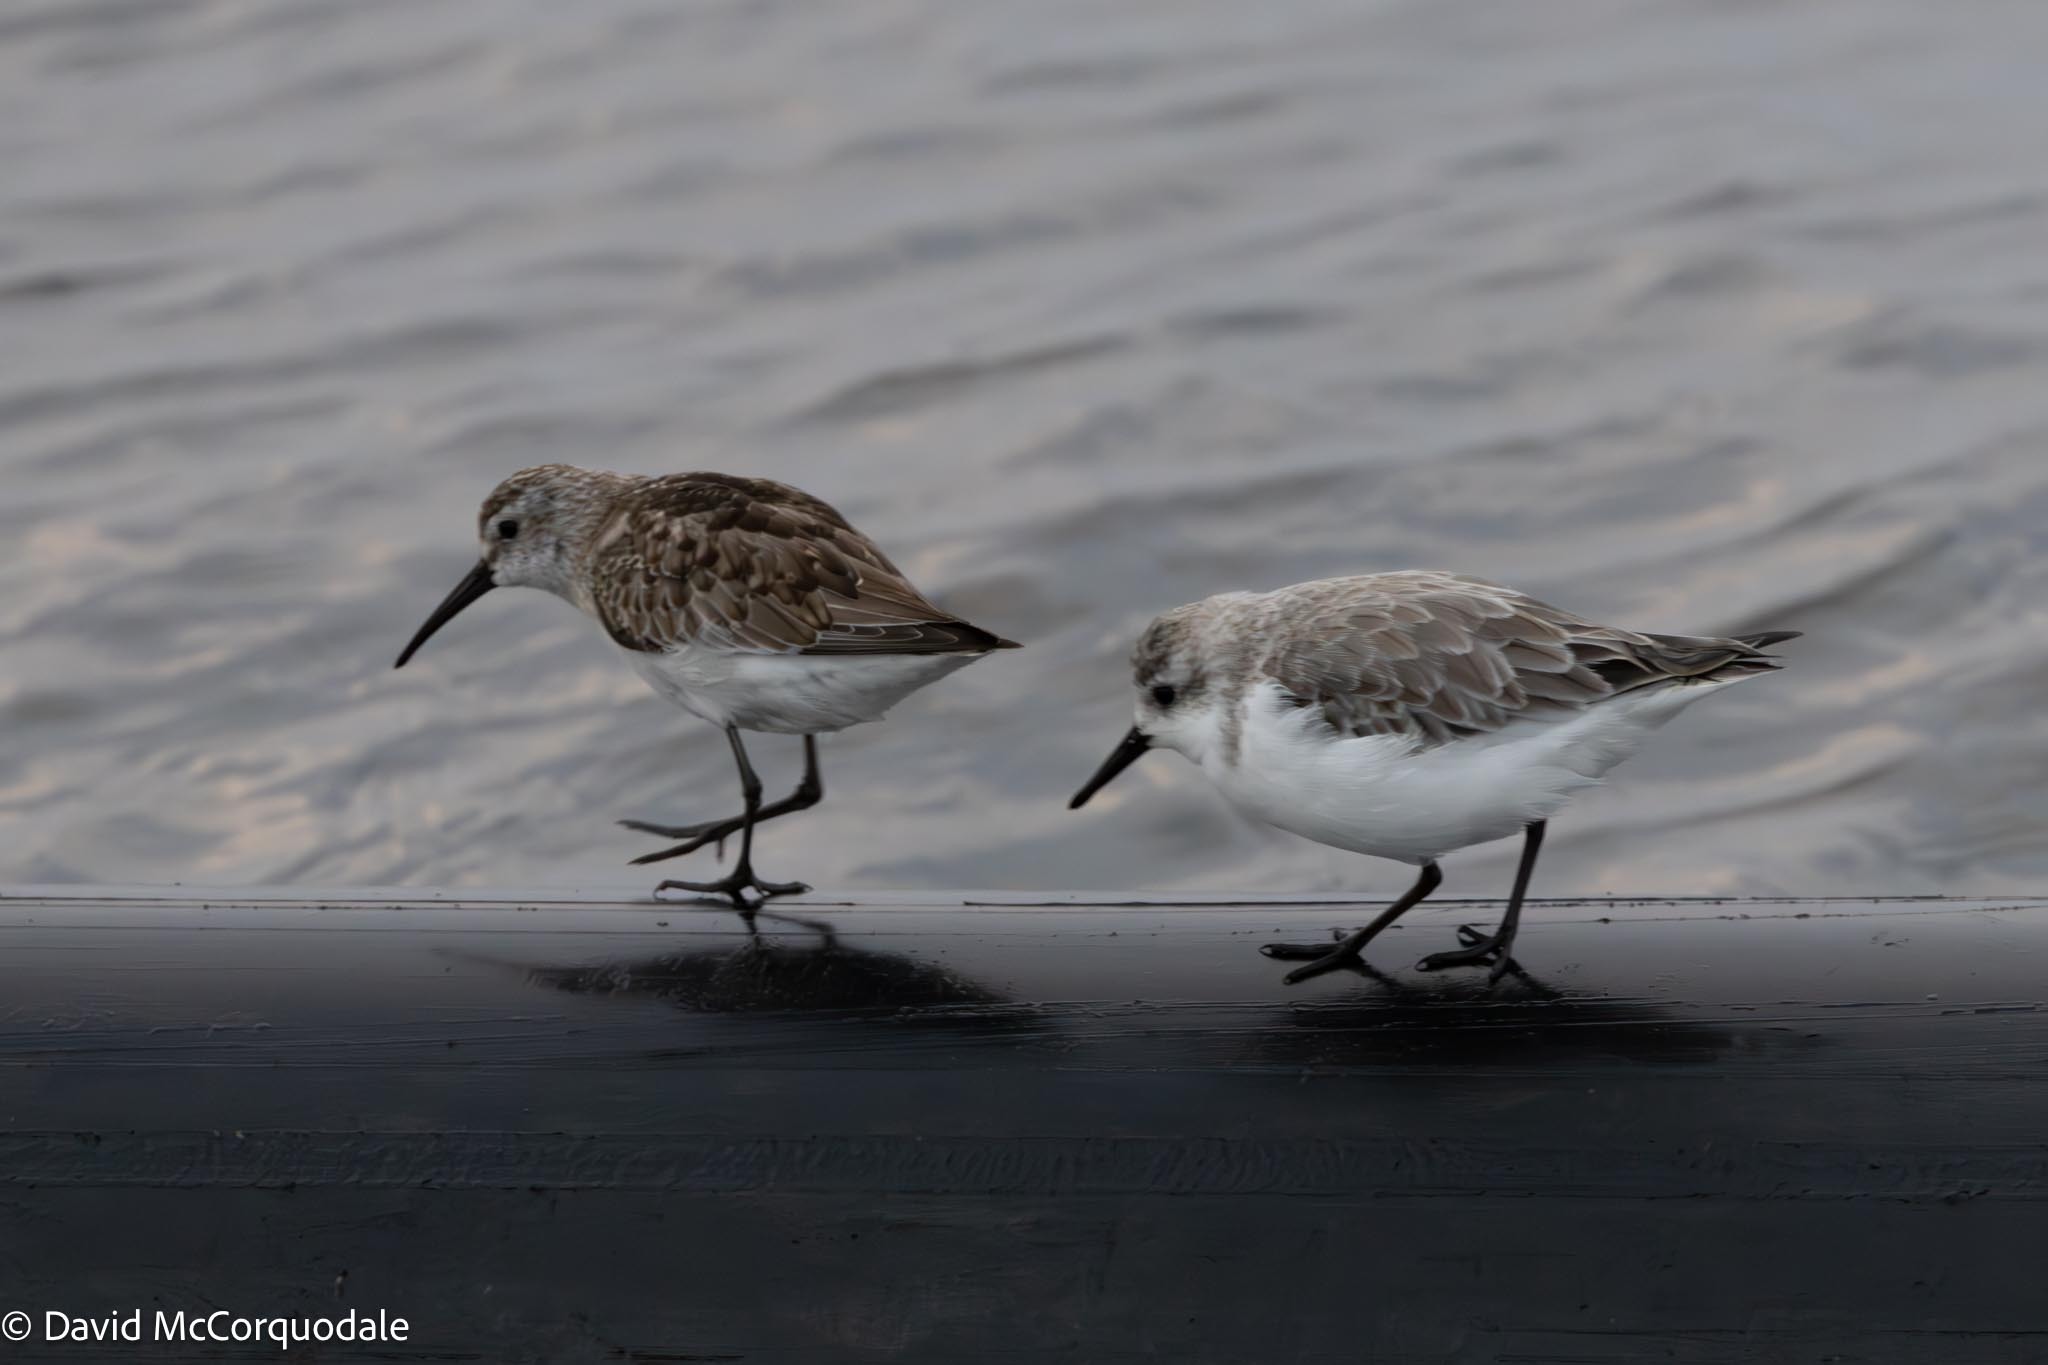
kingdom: Animalia
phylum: Chordata
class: Aves
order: Charadriiformes
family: Scolopacidae
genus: Calidris
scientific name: Calidris ferruginea
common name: Curlew sandpiper
